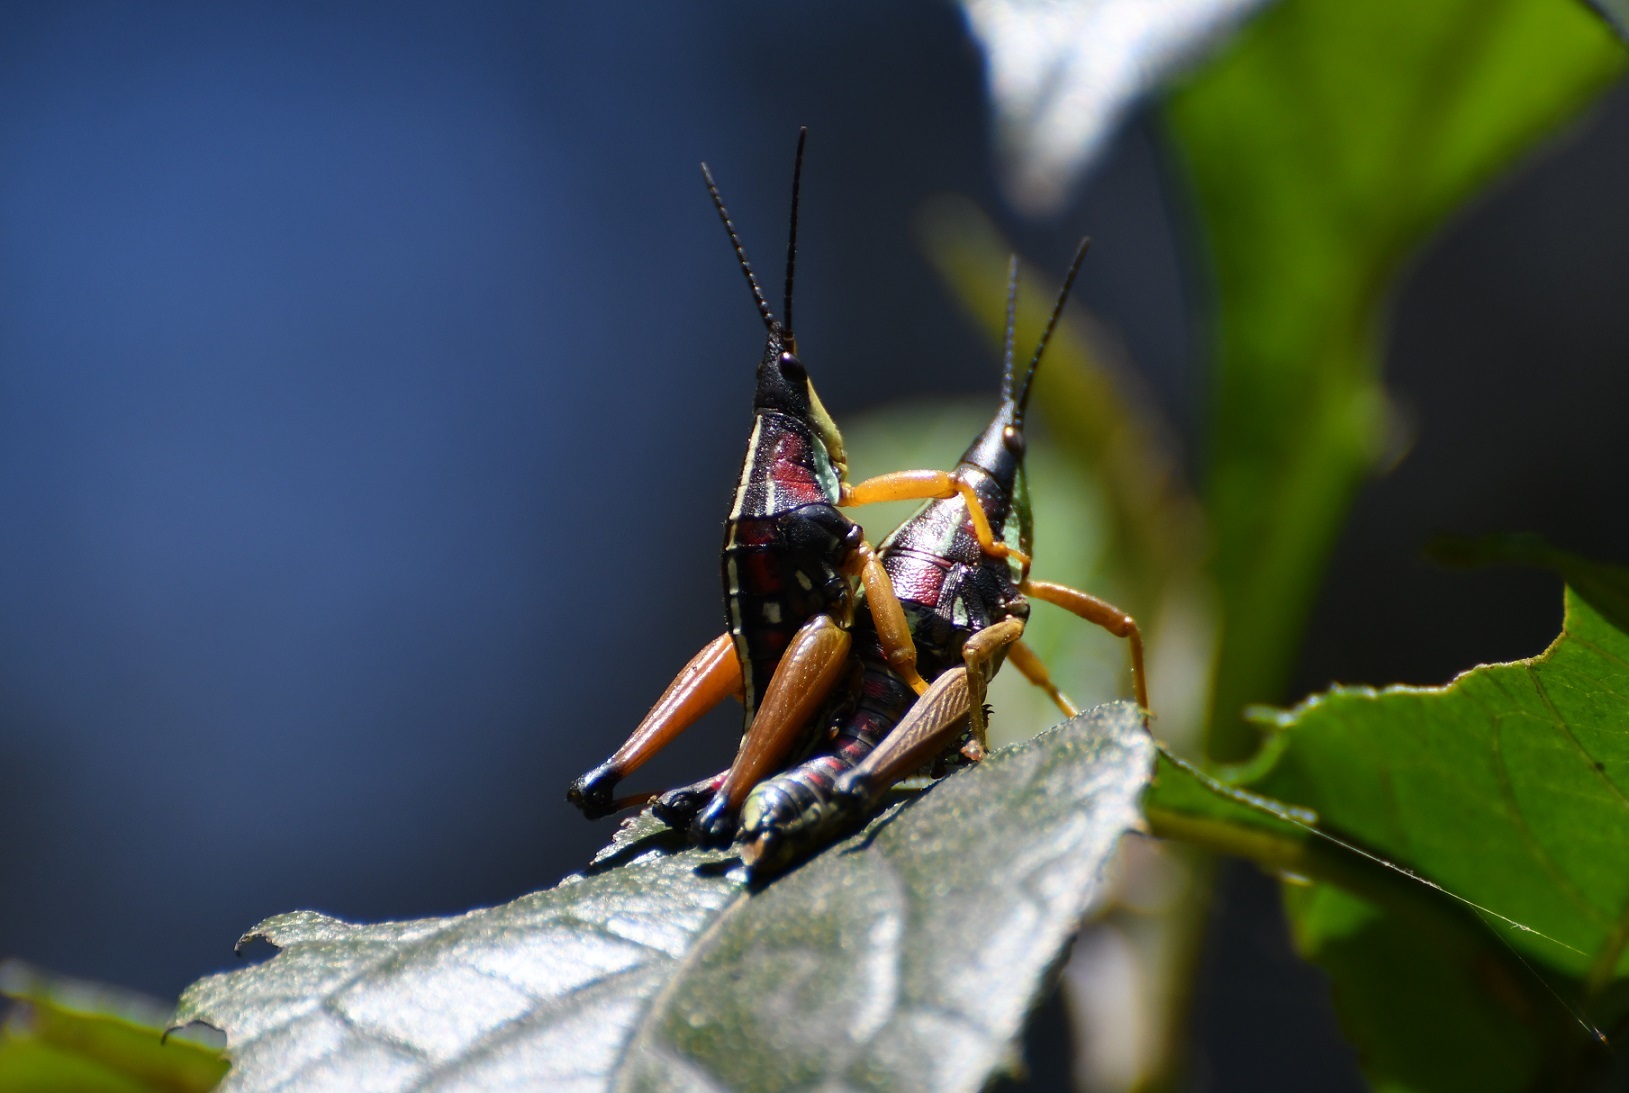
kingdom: Animalia
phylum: Arthropoda
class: Insecta
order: Orthoptera
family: Pyrgomorphidae
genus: Sphenarium
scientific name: Sphenarium histrio
